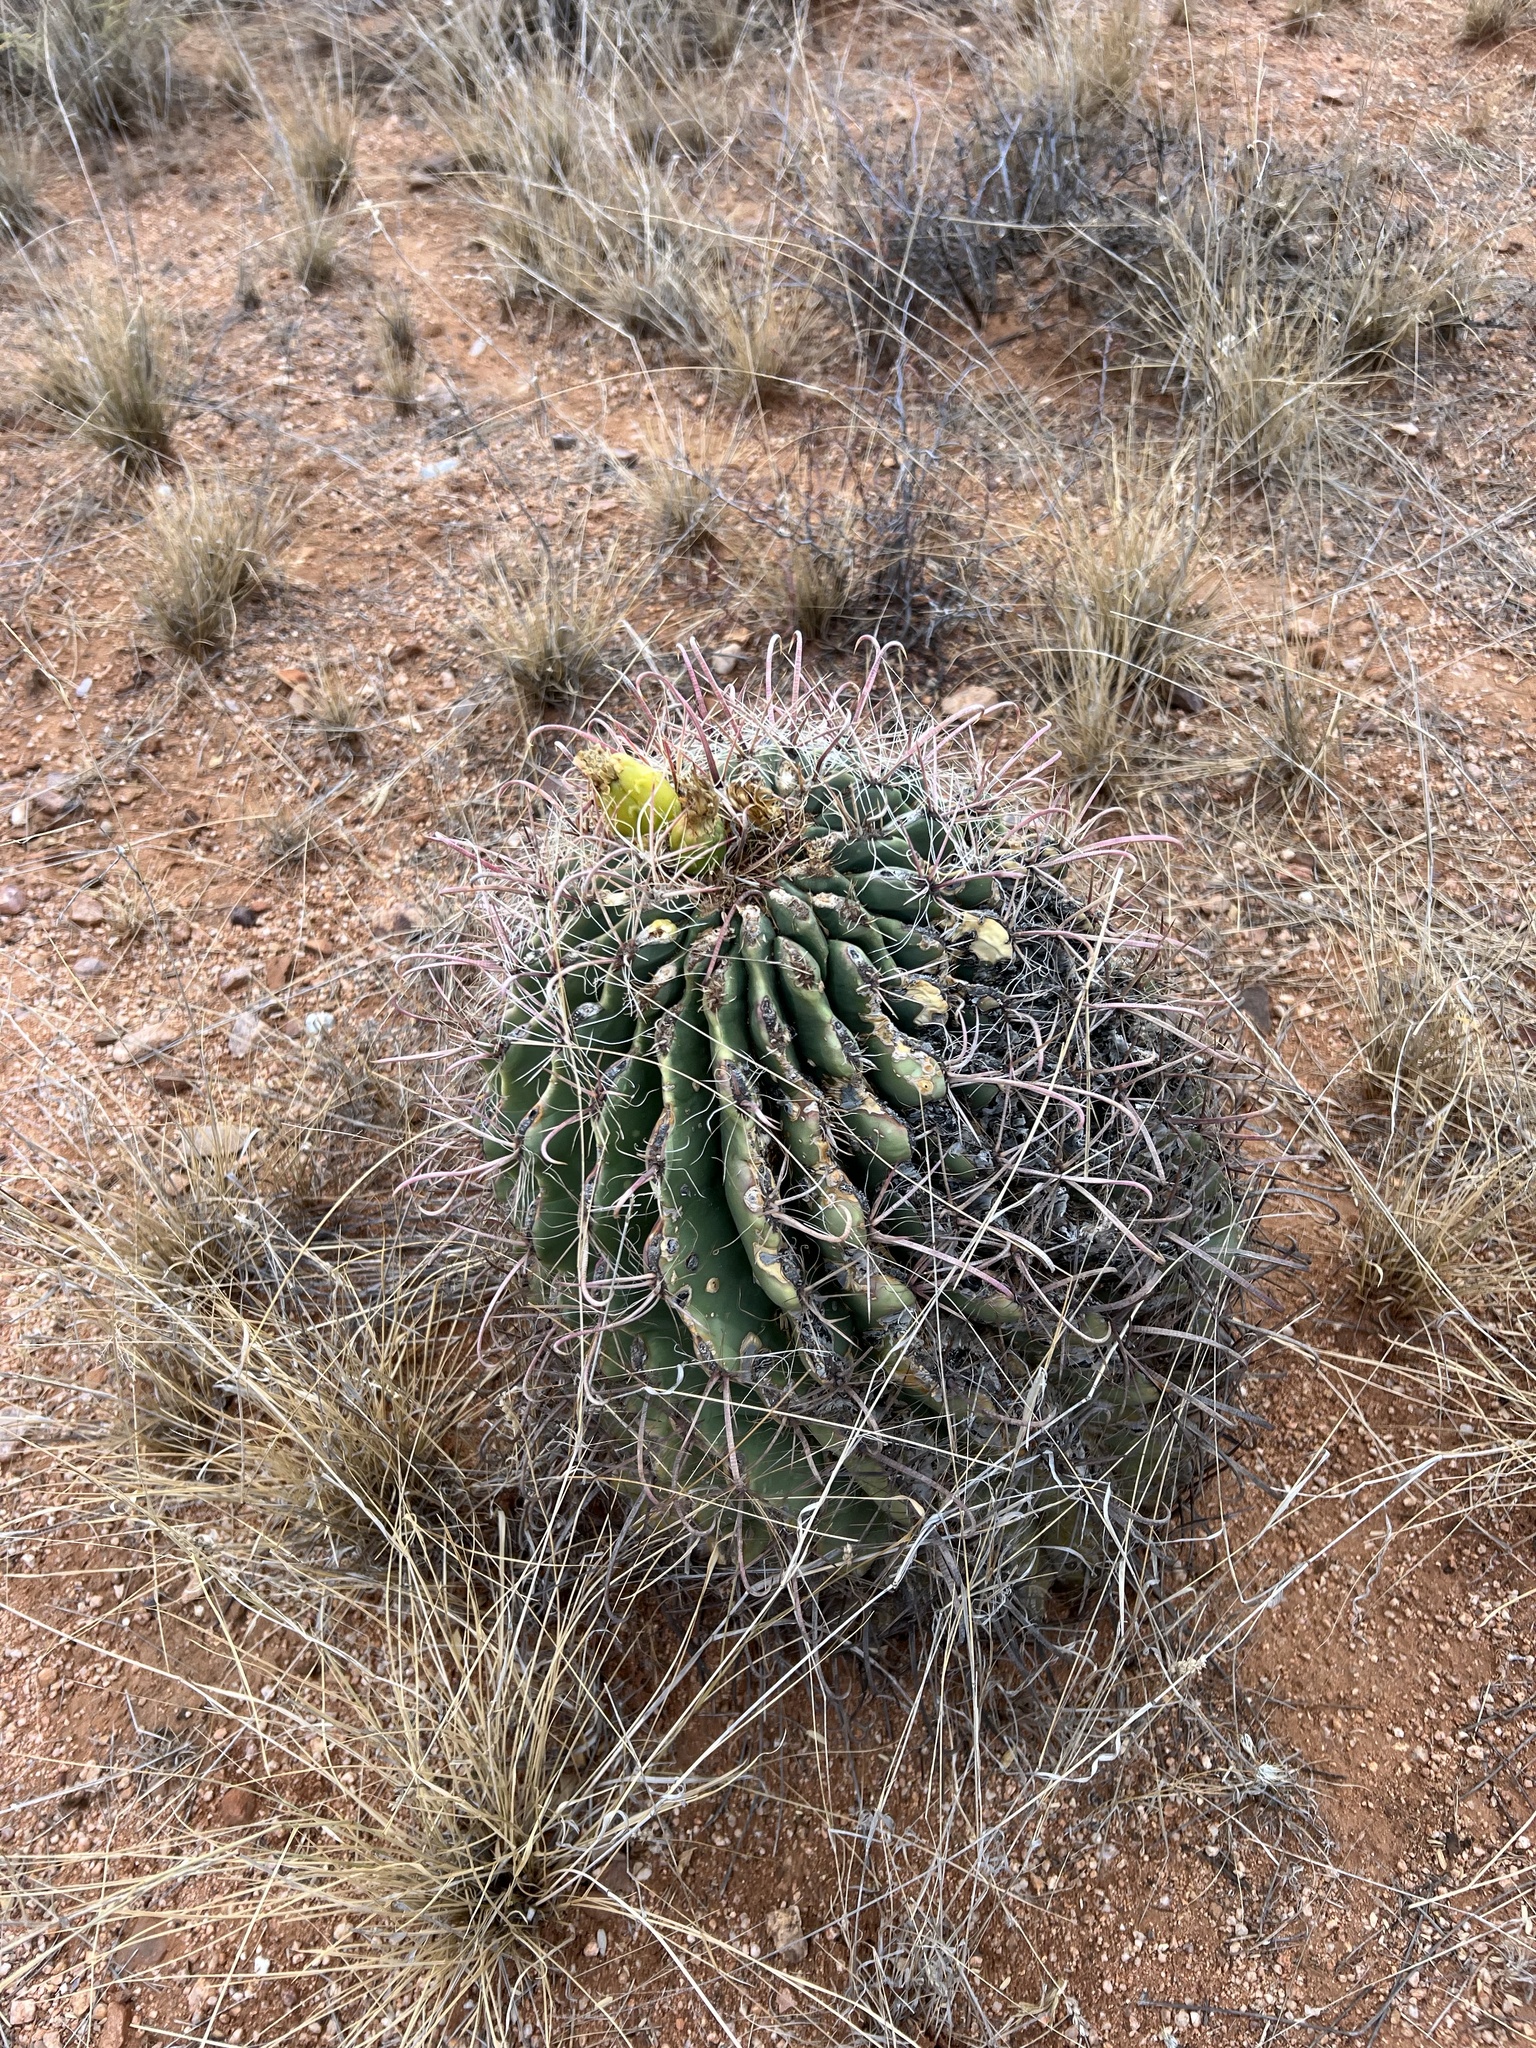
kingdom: Plantae
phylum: Tracheophyta
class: Magnoliopsida
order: Caryophyllales
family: Cactaceae
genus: Ferocactus
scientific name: Ferocactus wislizeni
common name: Candy barrel cactus
